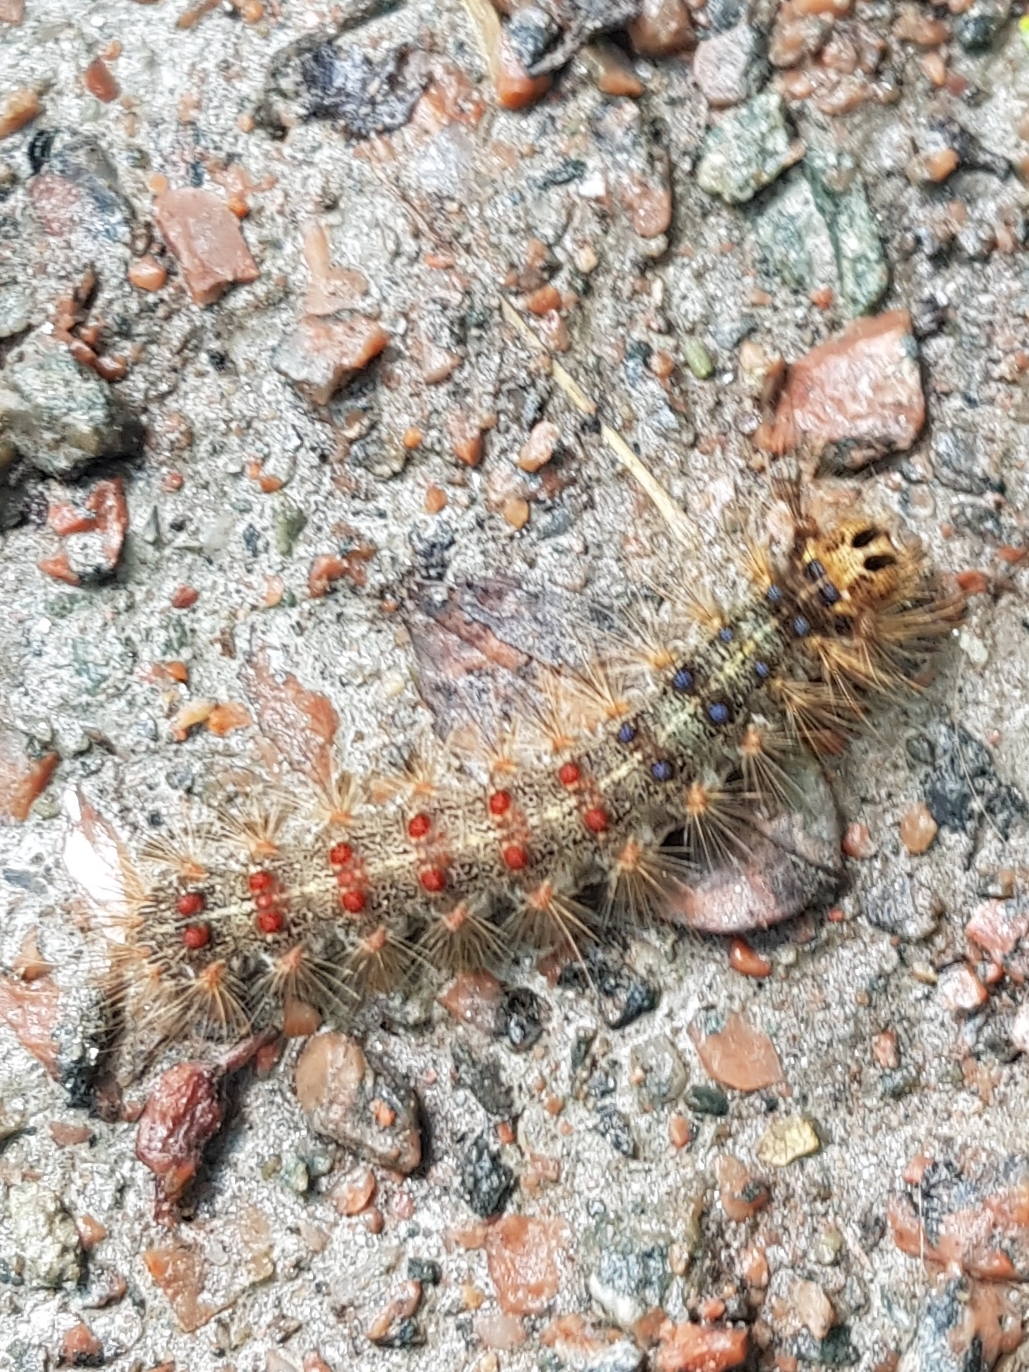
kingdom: Animalia
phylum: Arthropoda
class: Insecta
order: Lepidoptera
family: Erebidae
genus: Lymantria
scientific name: Lymantria dispar
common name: Gypsy moth
